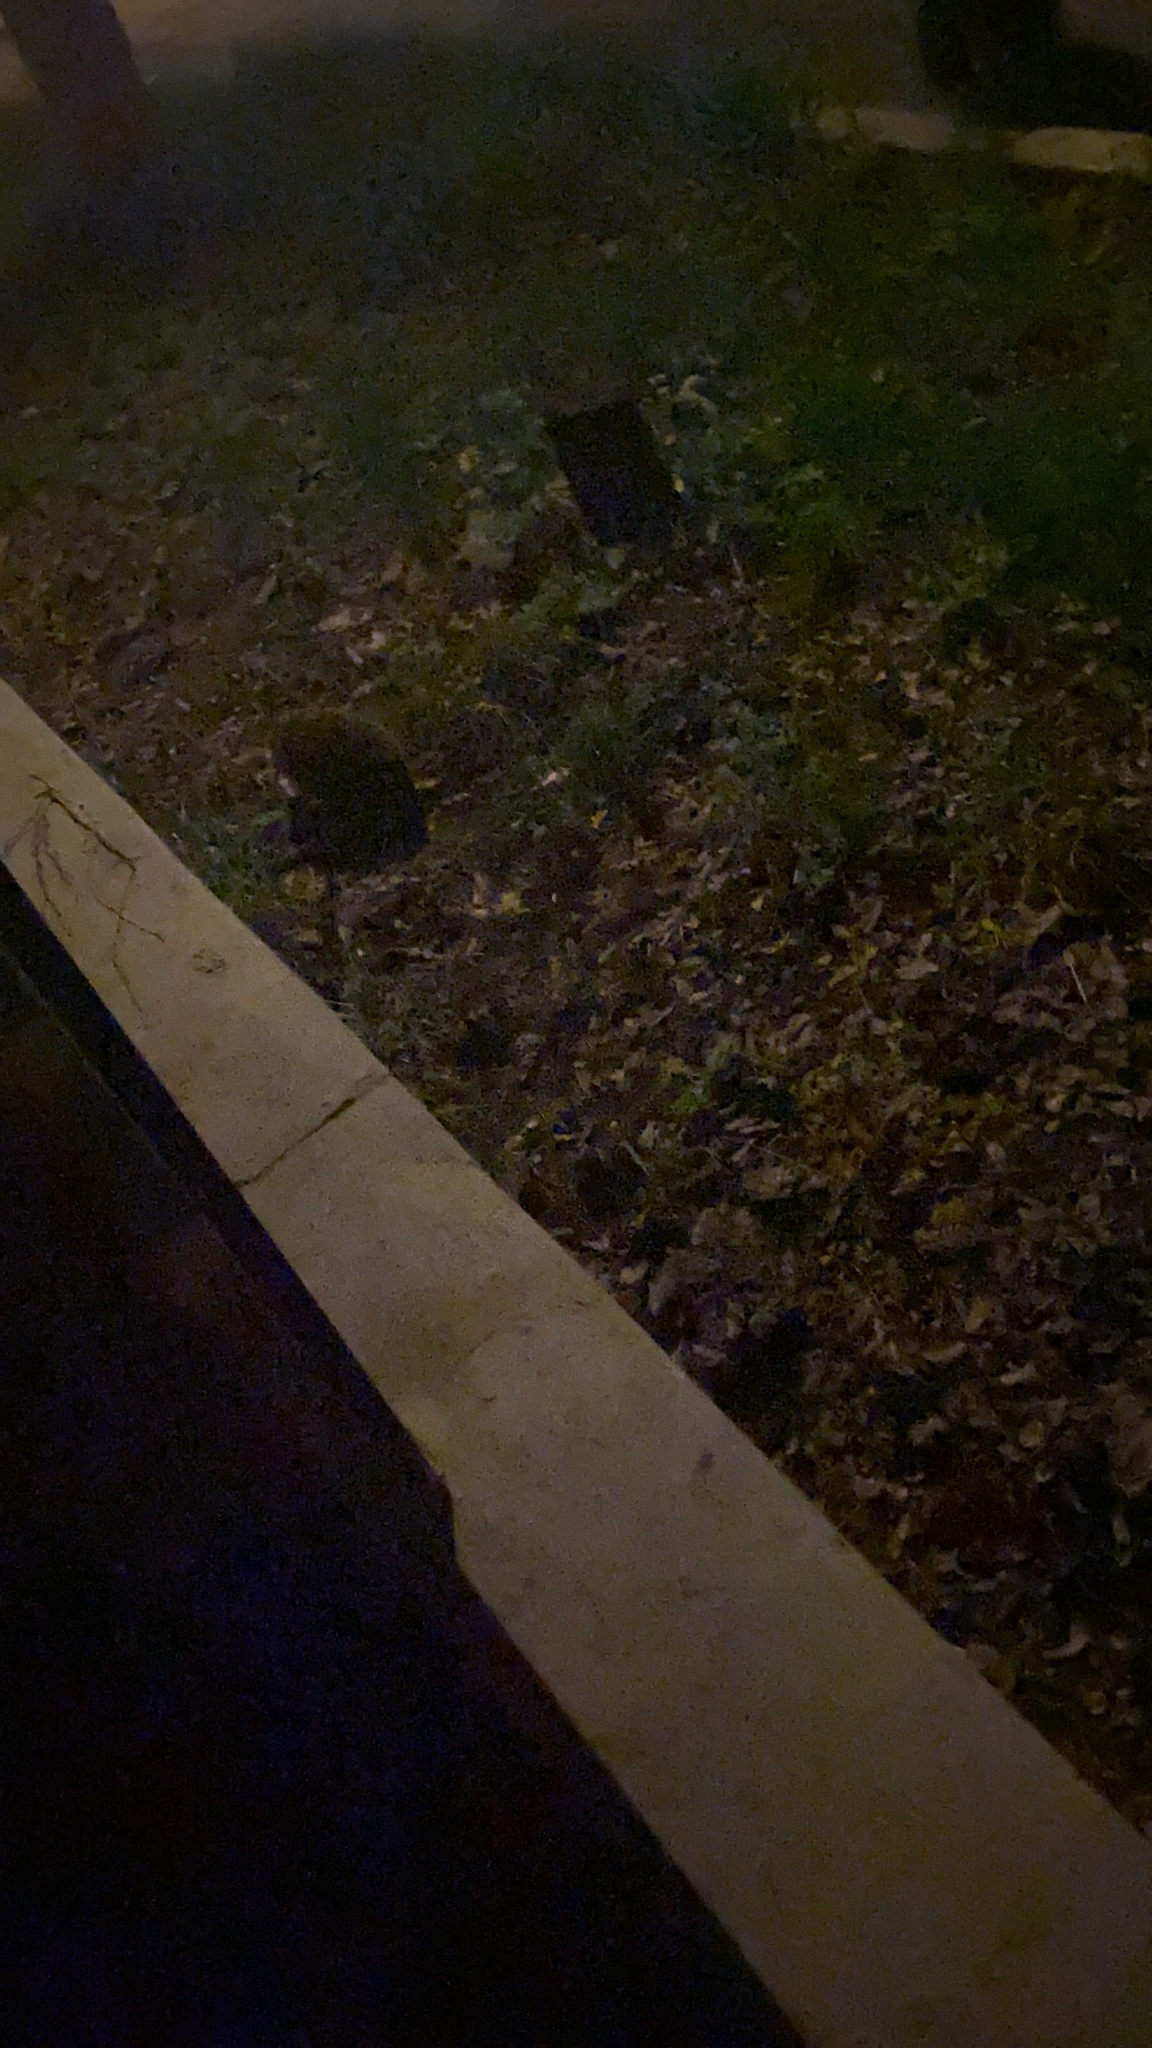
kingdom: Animalia
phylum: Chordata
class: Mammalia
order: Erinaceomorpha
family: Erinaceidae
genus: Erinaceus
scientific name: Erinaceus roumanicus
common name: Northern white-breasted hedgehog
